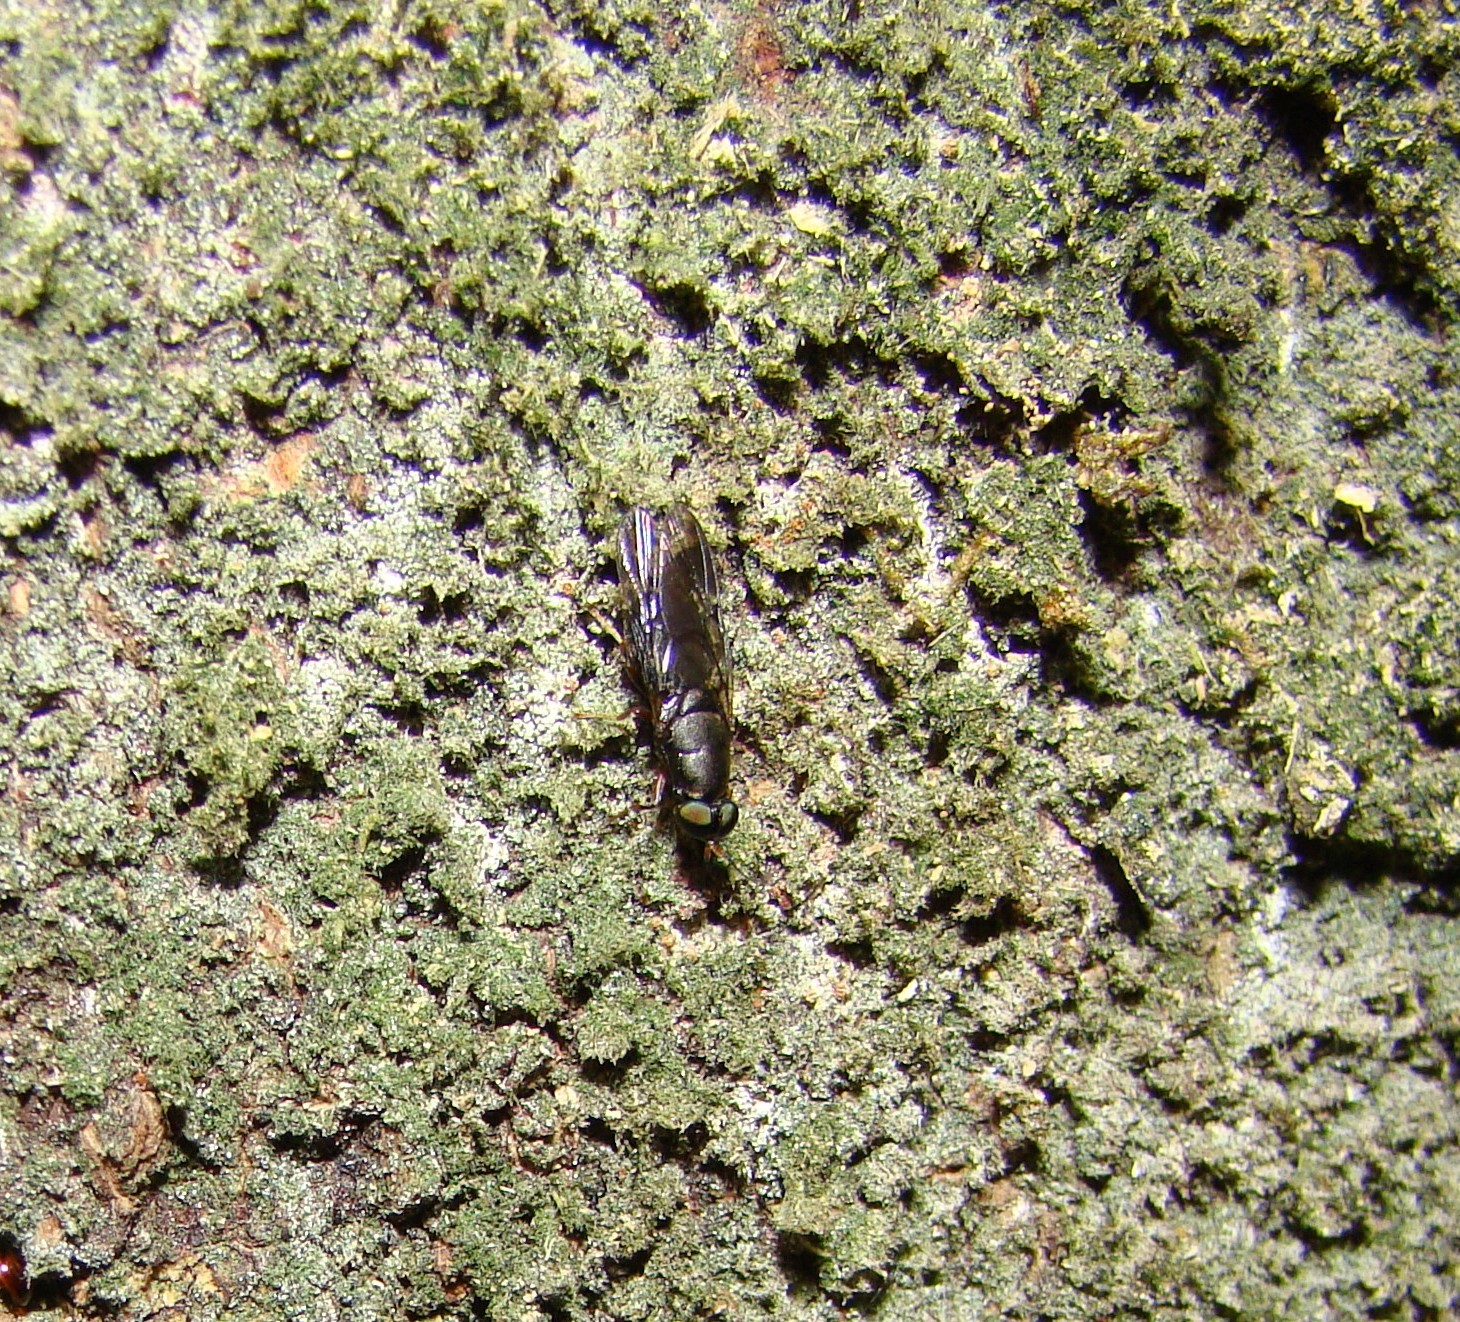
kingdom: Animalia
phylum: Arthropoda
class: Insecta
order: Diptera
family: Stratiomyidae
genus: Dysbiota
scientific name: Dysbiota peregrina
